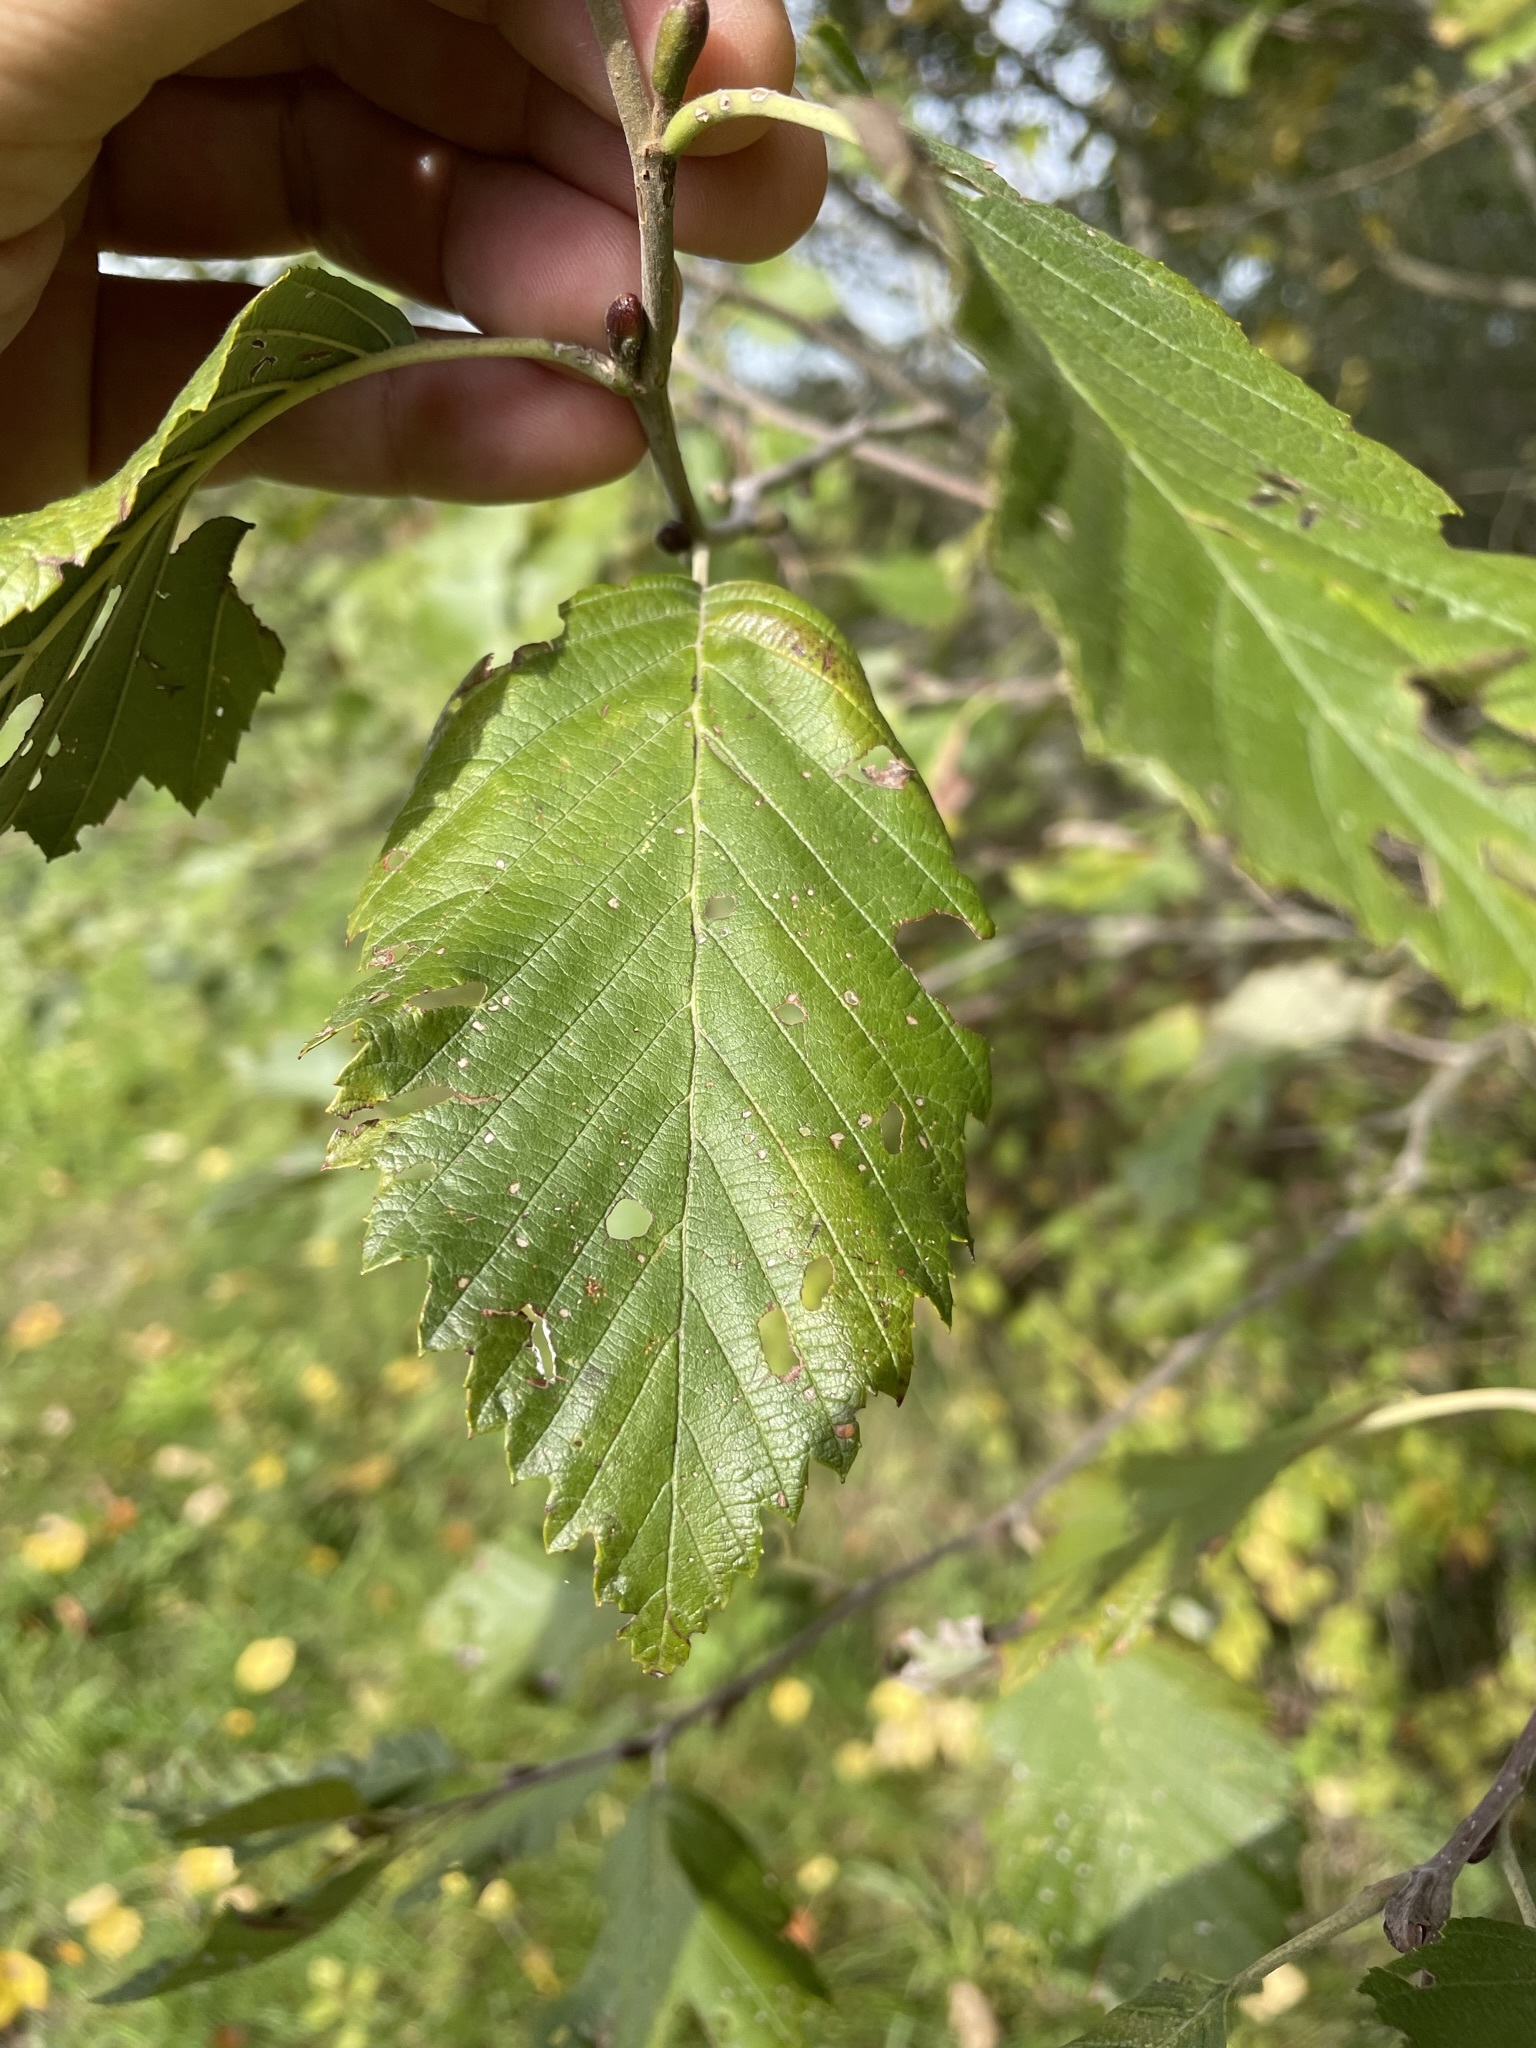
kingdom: Plantae
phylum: Tracheophyta
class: Magnoliopsida
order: Fagales
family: Betulaceae
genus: Alnus
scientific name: Alnus incana
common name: Grey alder
